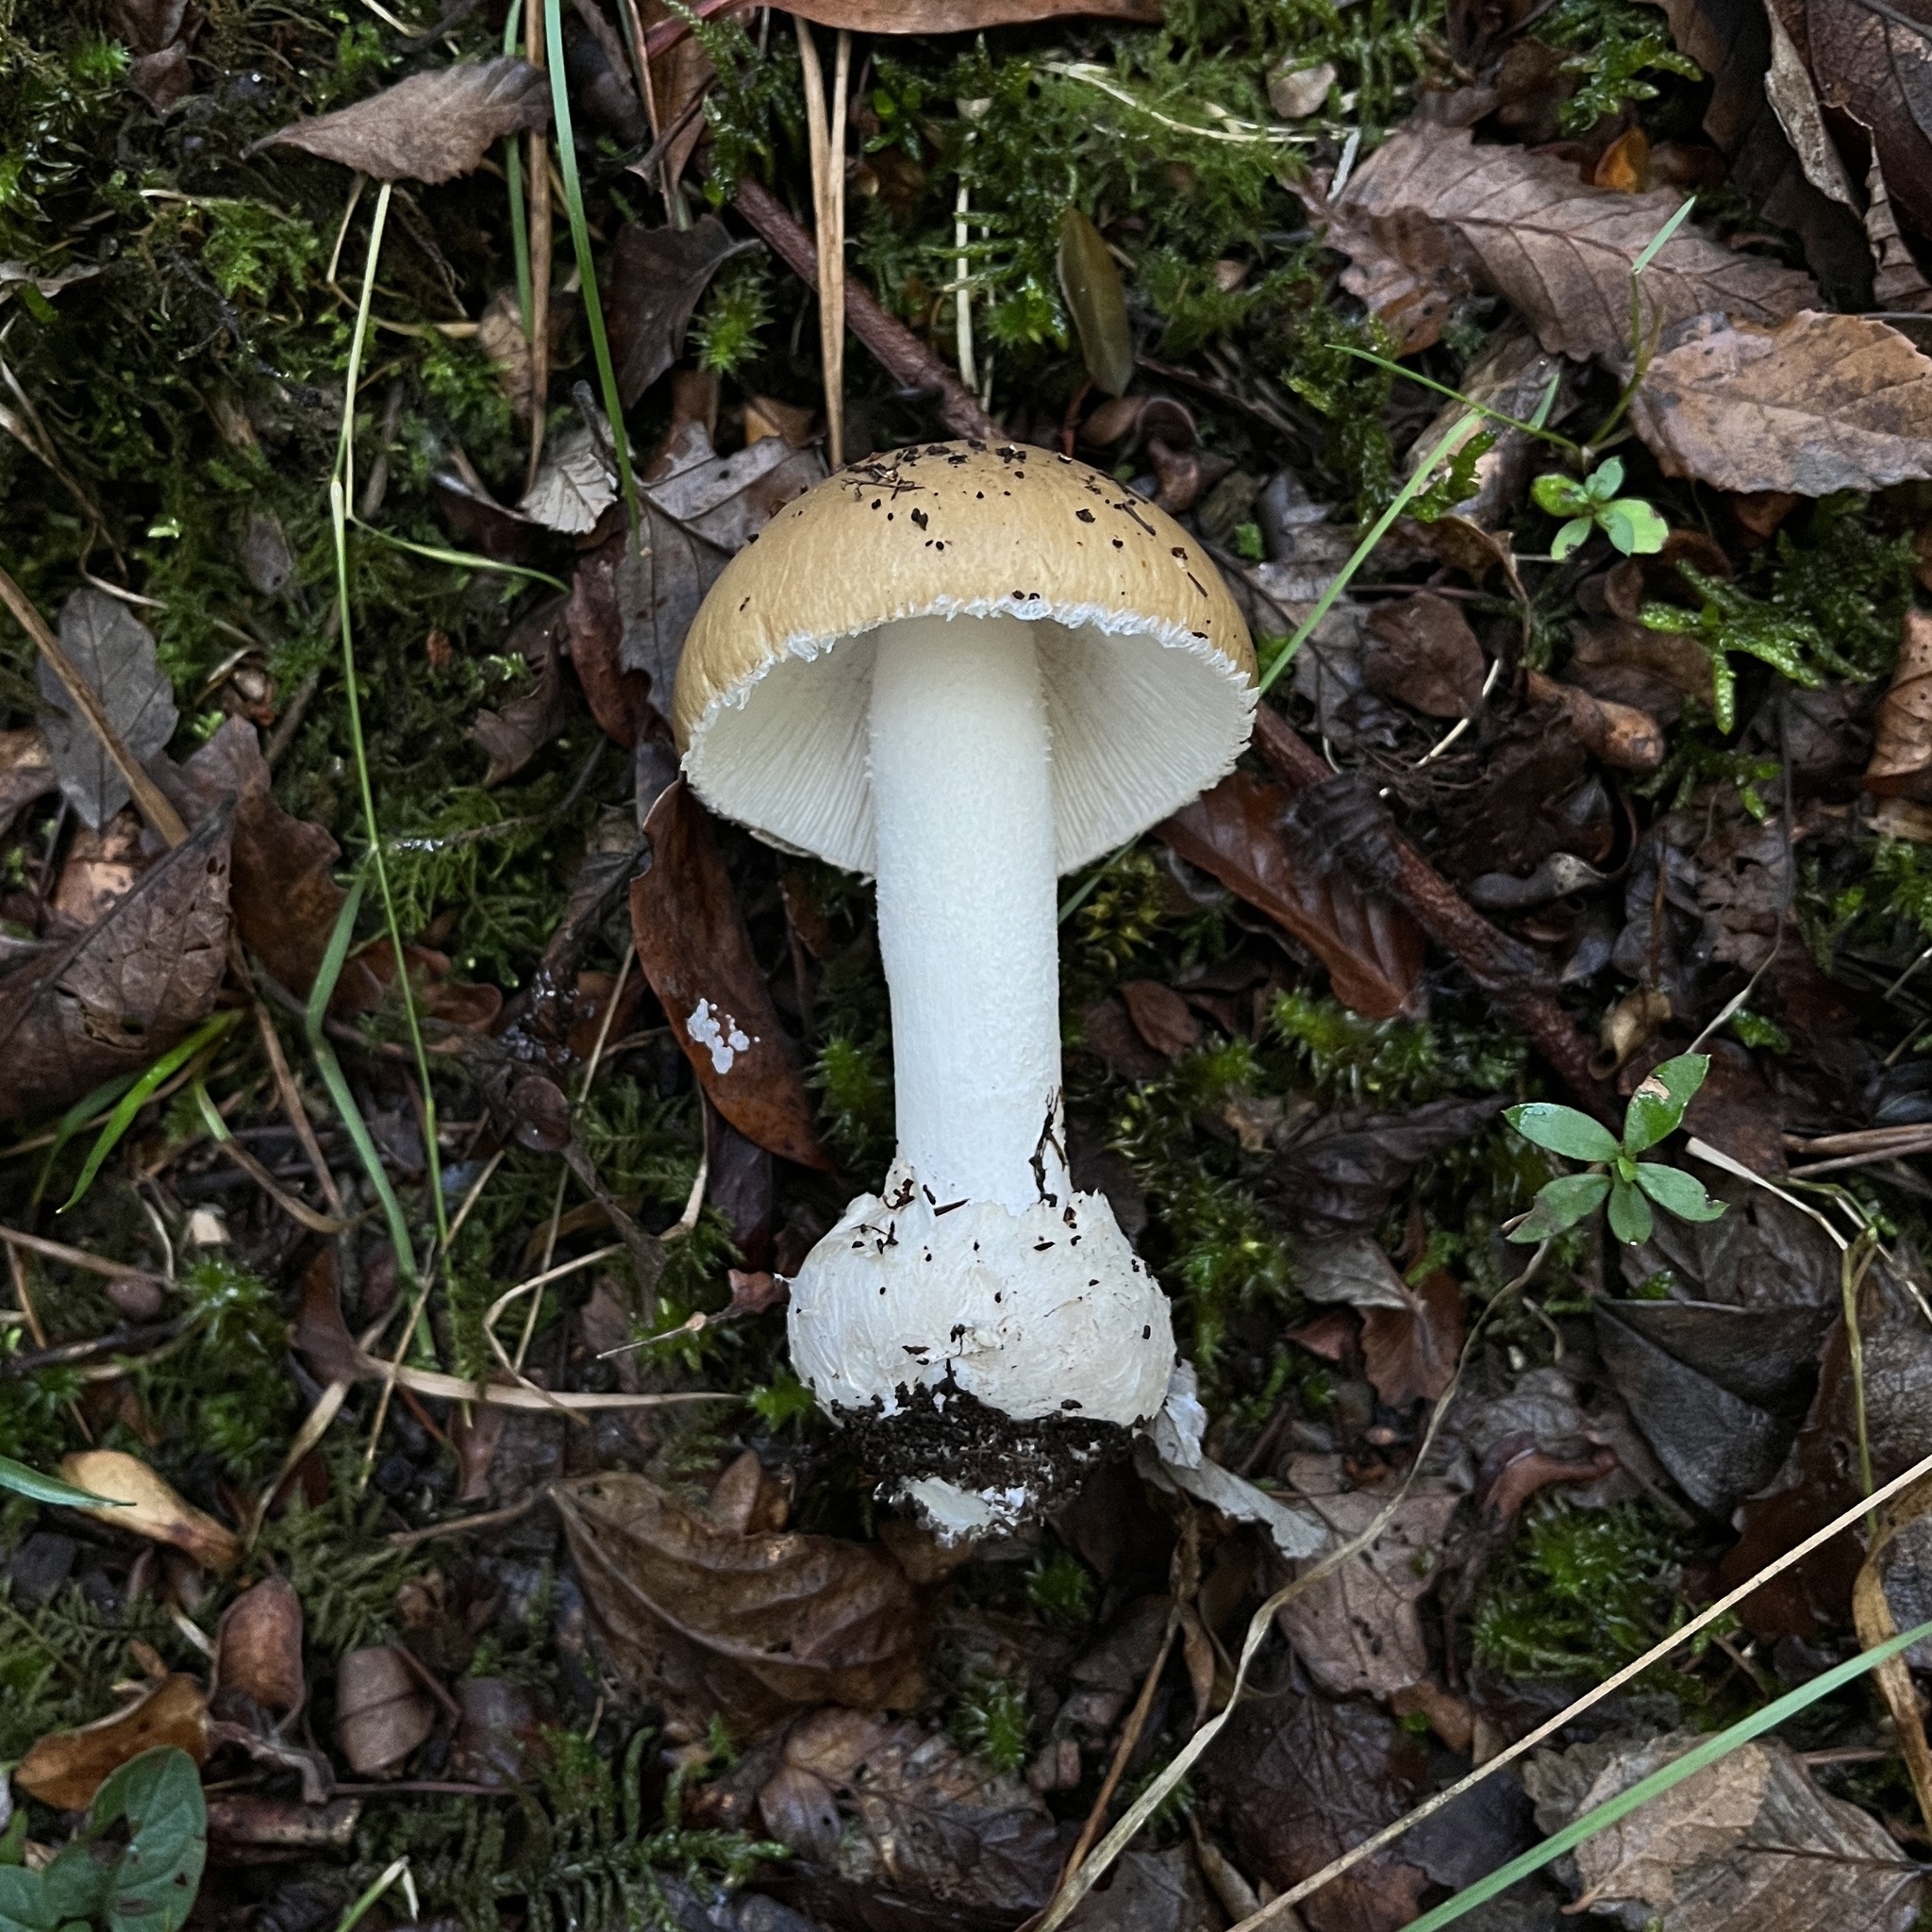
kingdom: Fungi
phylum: Basidiomycota
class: Agaricomycetes
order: Agaricales
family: Amanitaceae
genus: Amanita
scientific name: Amanita diemii
